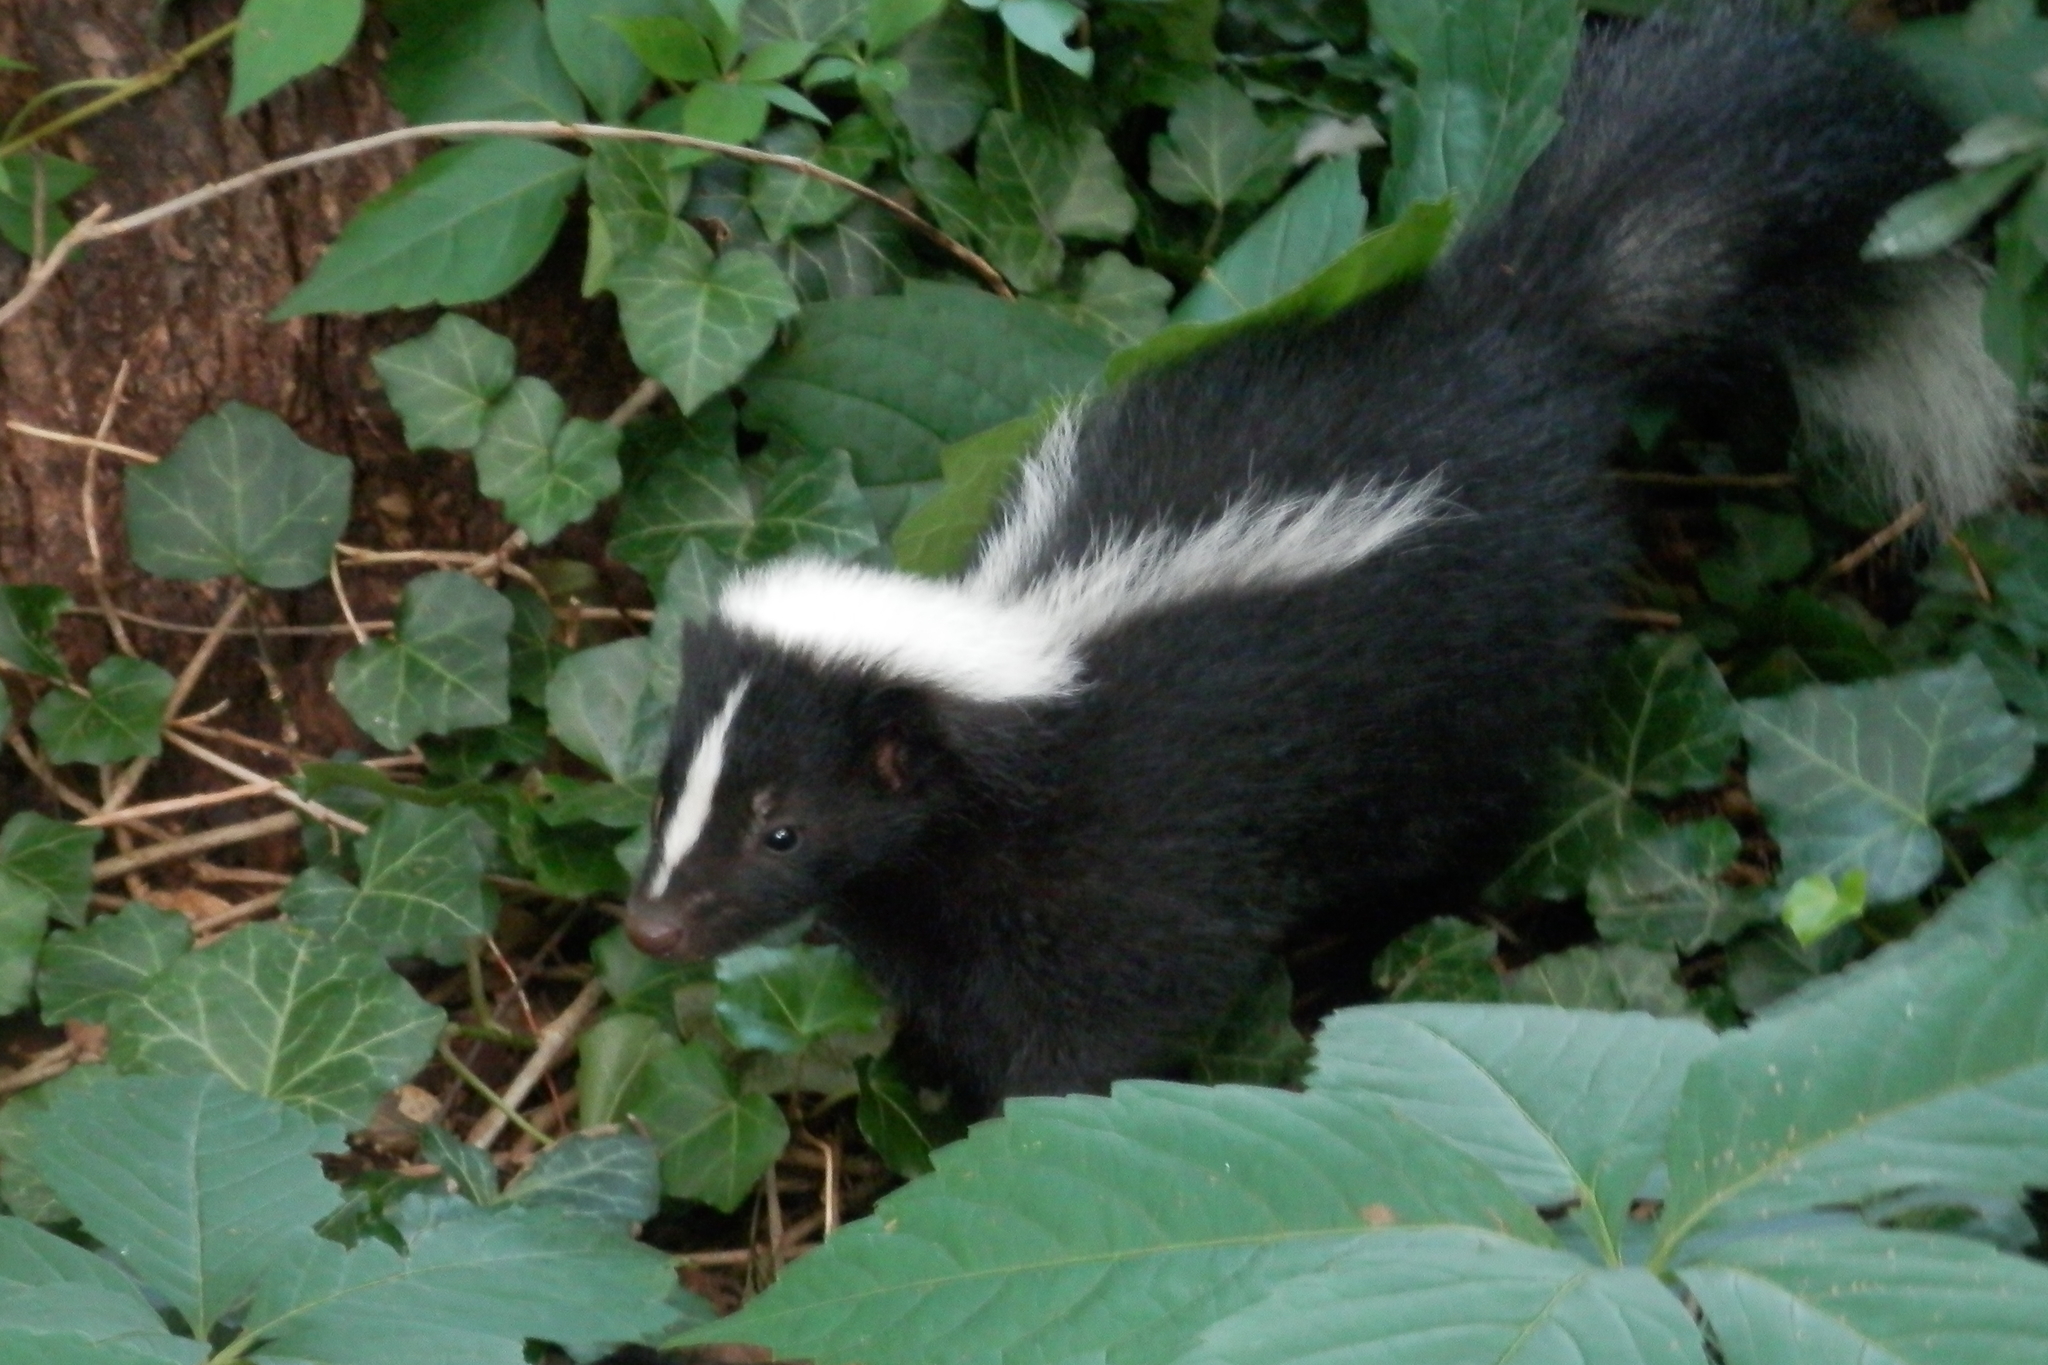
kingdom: Animalia
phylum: Chordata
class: Mammalia
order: Carnivora
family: Mephitidae
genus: Mephitis
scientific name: Mephitis mephitis
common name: Striped skunk
